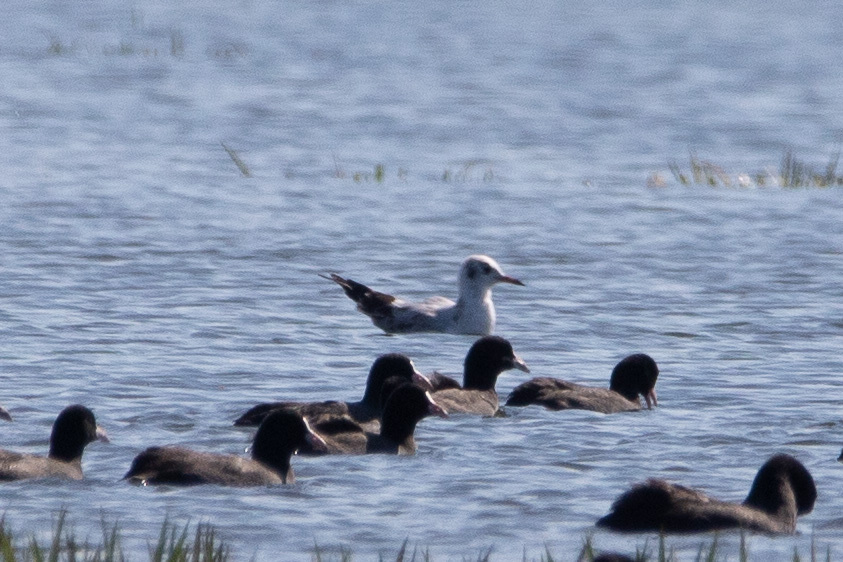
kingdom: Animalia
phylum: Chordata
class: Aves
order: Charadriiformes
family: Laridae
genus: Chroicocephalus
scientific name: Chroicocephalus ridibundus
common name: Black-headed gull
